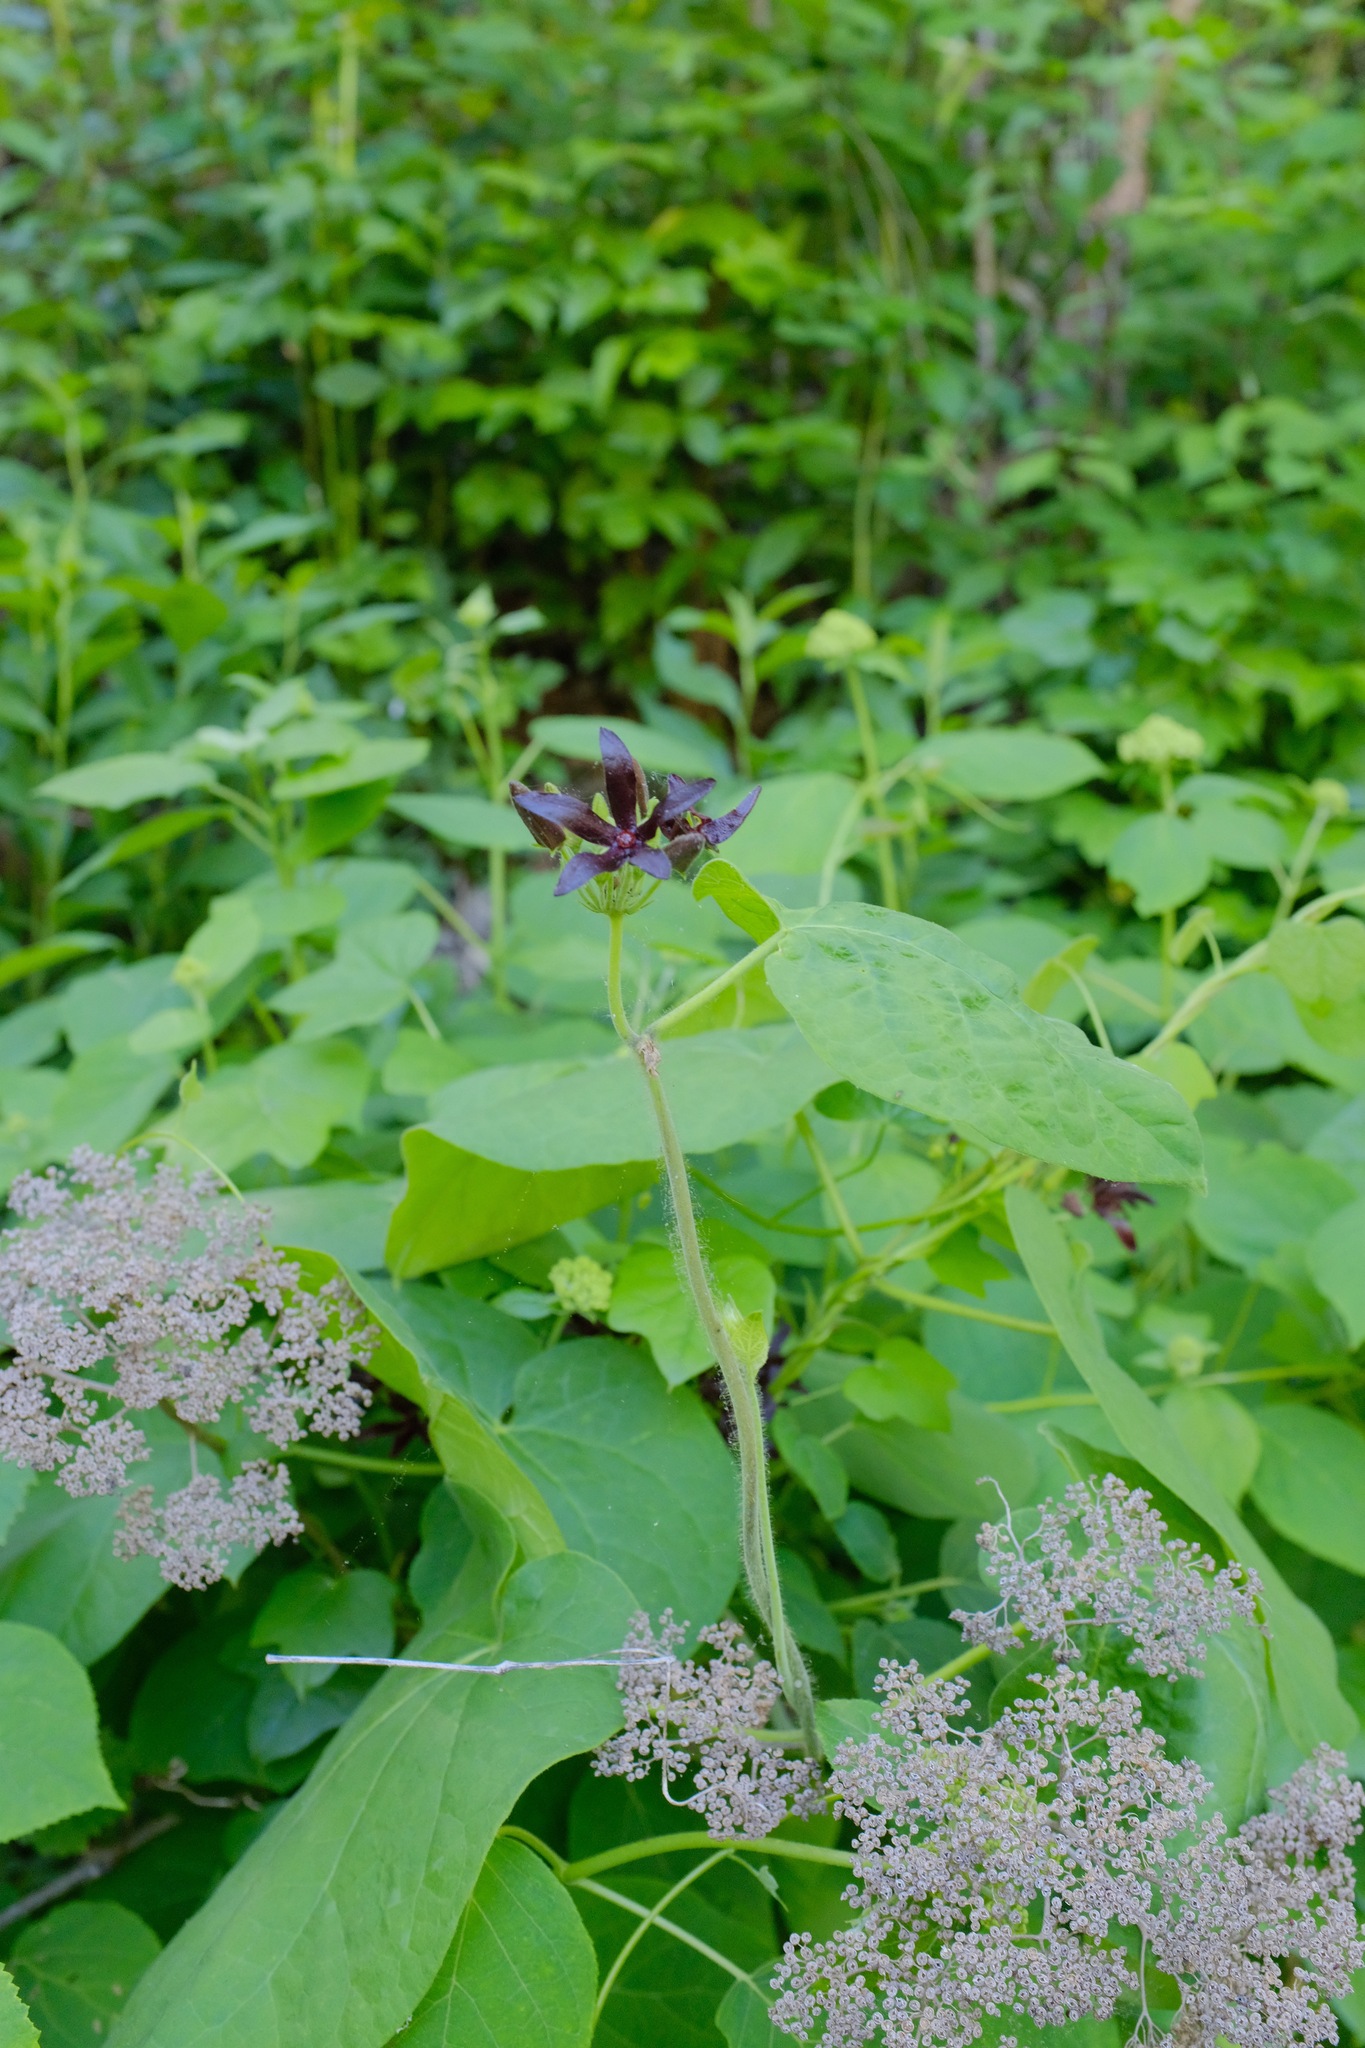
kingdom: Plantae
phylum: Tracheophyta
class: Magnoliopsida
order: Gentianales
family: Apocynaceae
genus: Matelea
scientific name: Matelea decipiens
